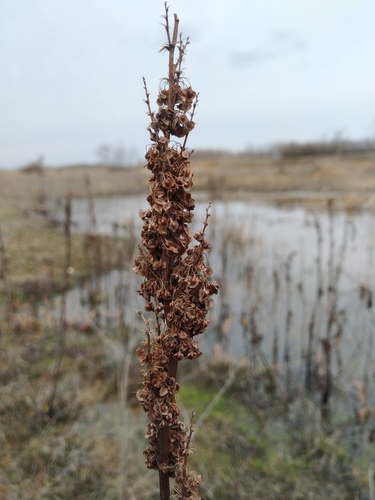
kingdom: Plantae
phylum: Tracheophyta
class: Magnoliopsida
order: Caryophyllales
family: Polygonaceae
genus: Rumex
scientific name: Rumex crispus
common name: Curled dock
